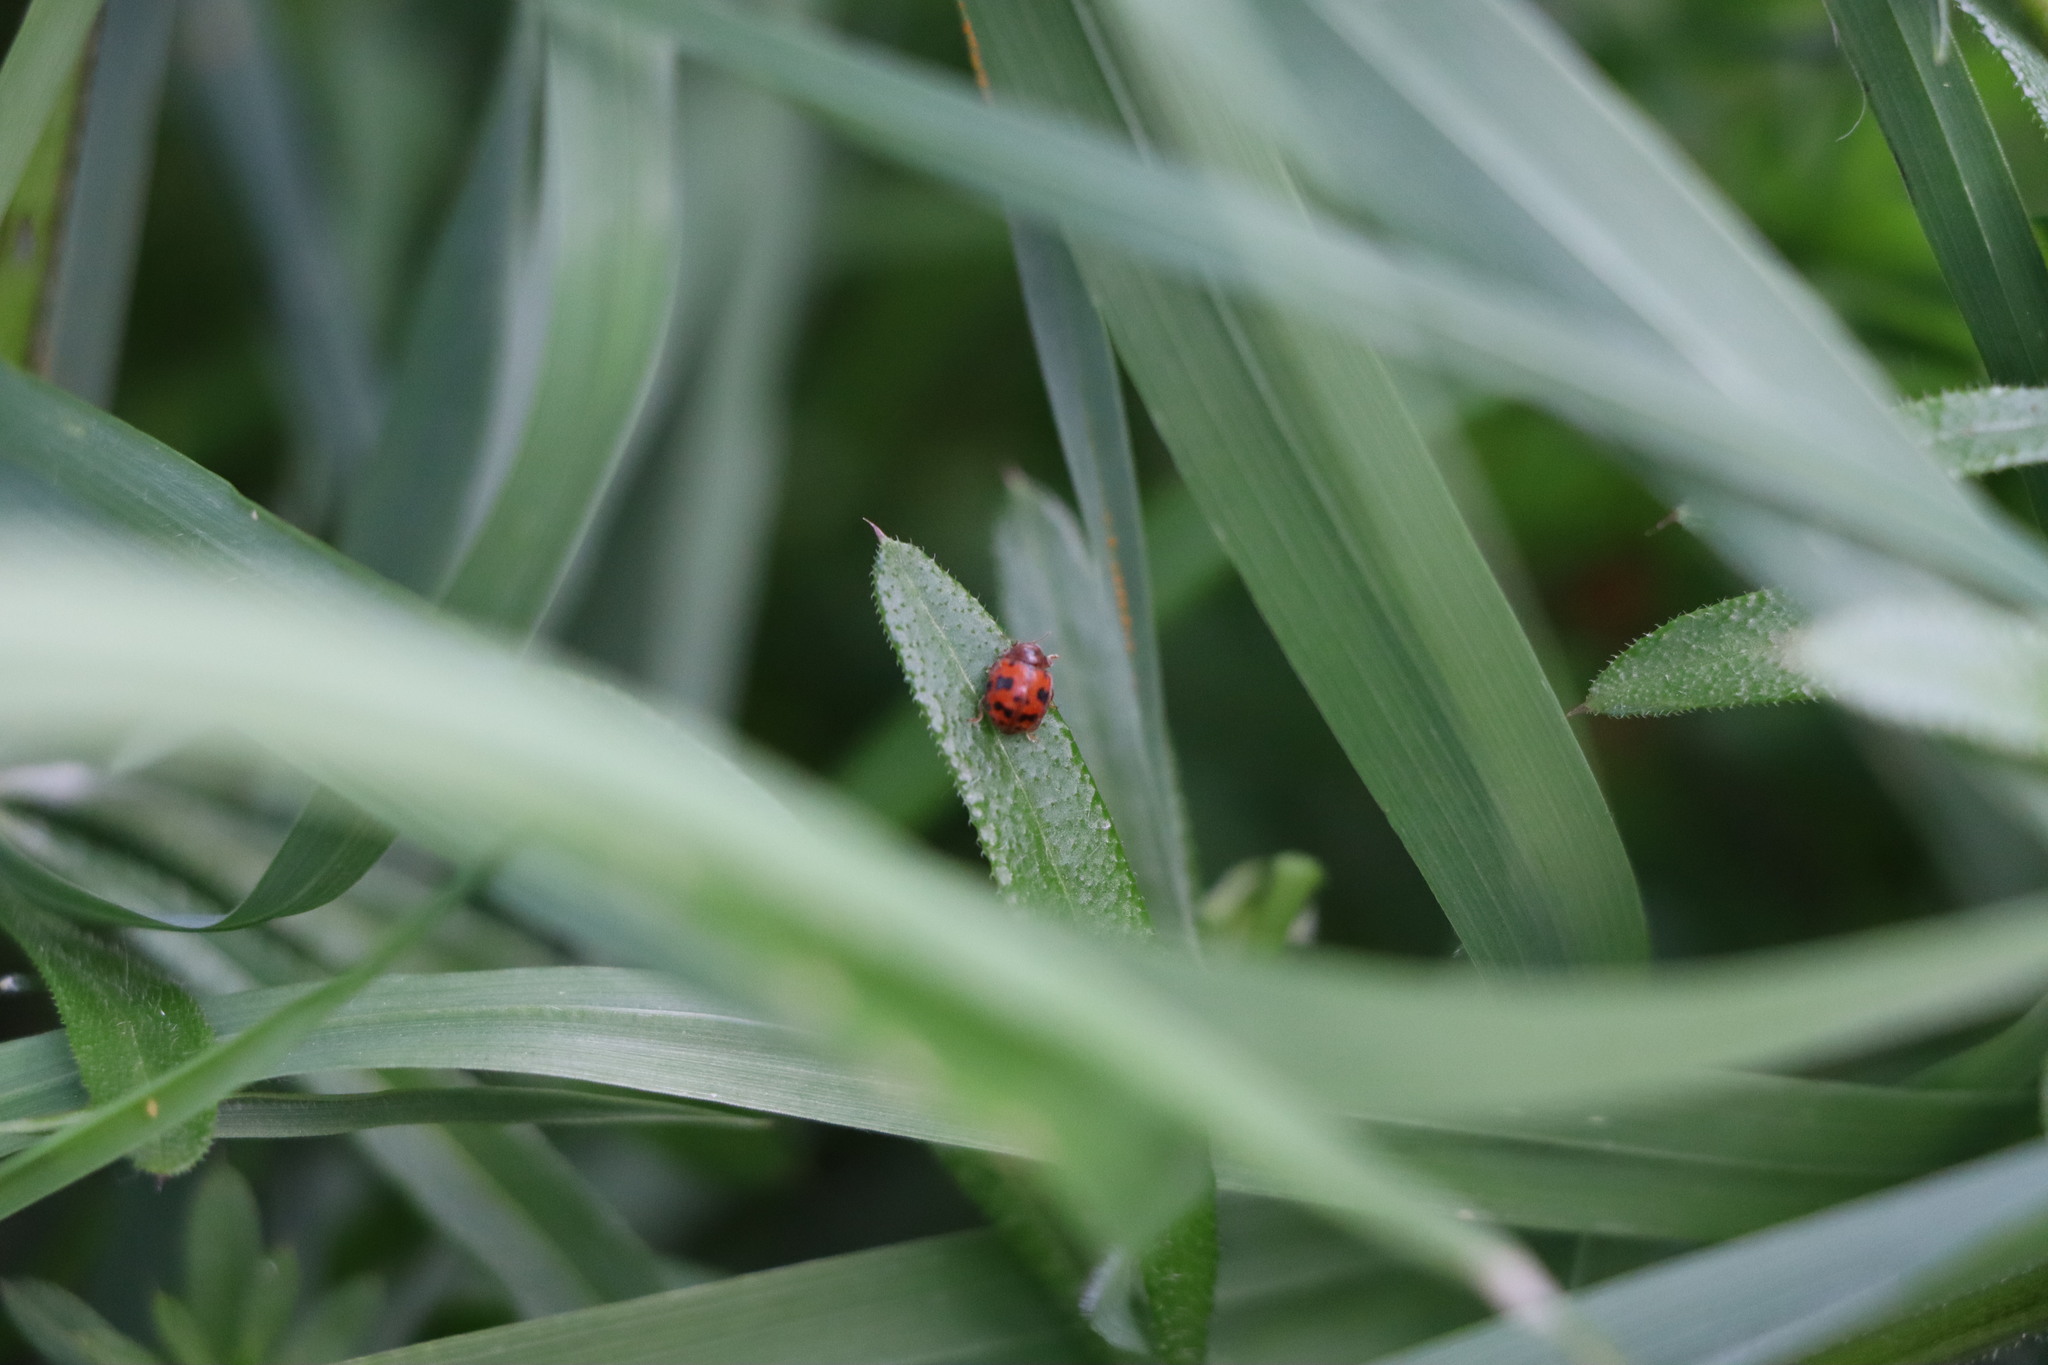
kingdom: Animalia
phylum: Arthropoda
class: Insecta
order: Coleoptera
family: Coccinellidae
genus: Subcoccinella
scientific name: Subcoccinella vigintiquatuorpunctata
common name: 24-spot ladybird
